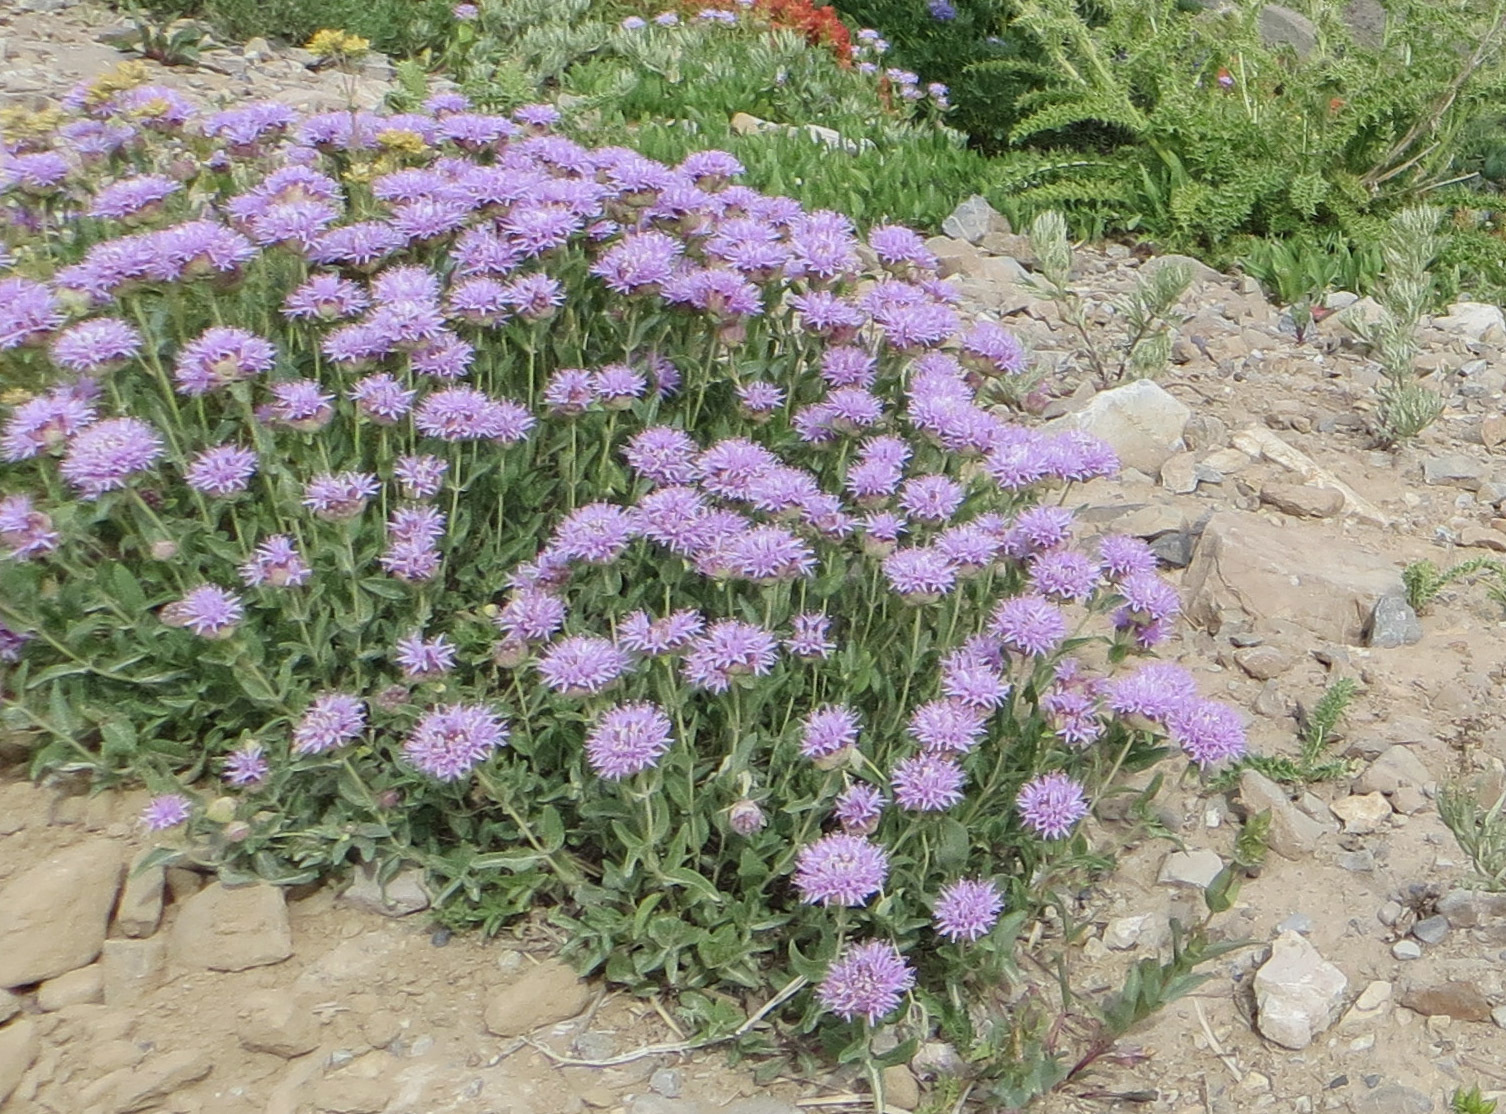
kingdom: Plantae
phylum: Tracheophyta
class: Magnoliopsida
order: Lamiales
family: Lamiaceae
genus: Monardella
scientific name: Monardella odoratissima
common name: Pacific monardella
